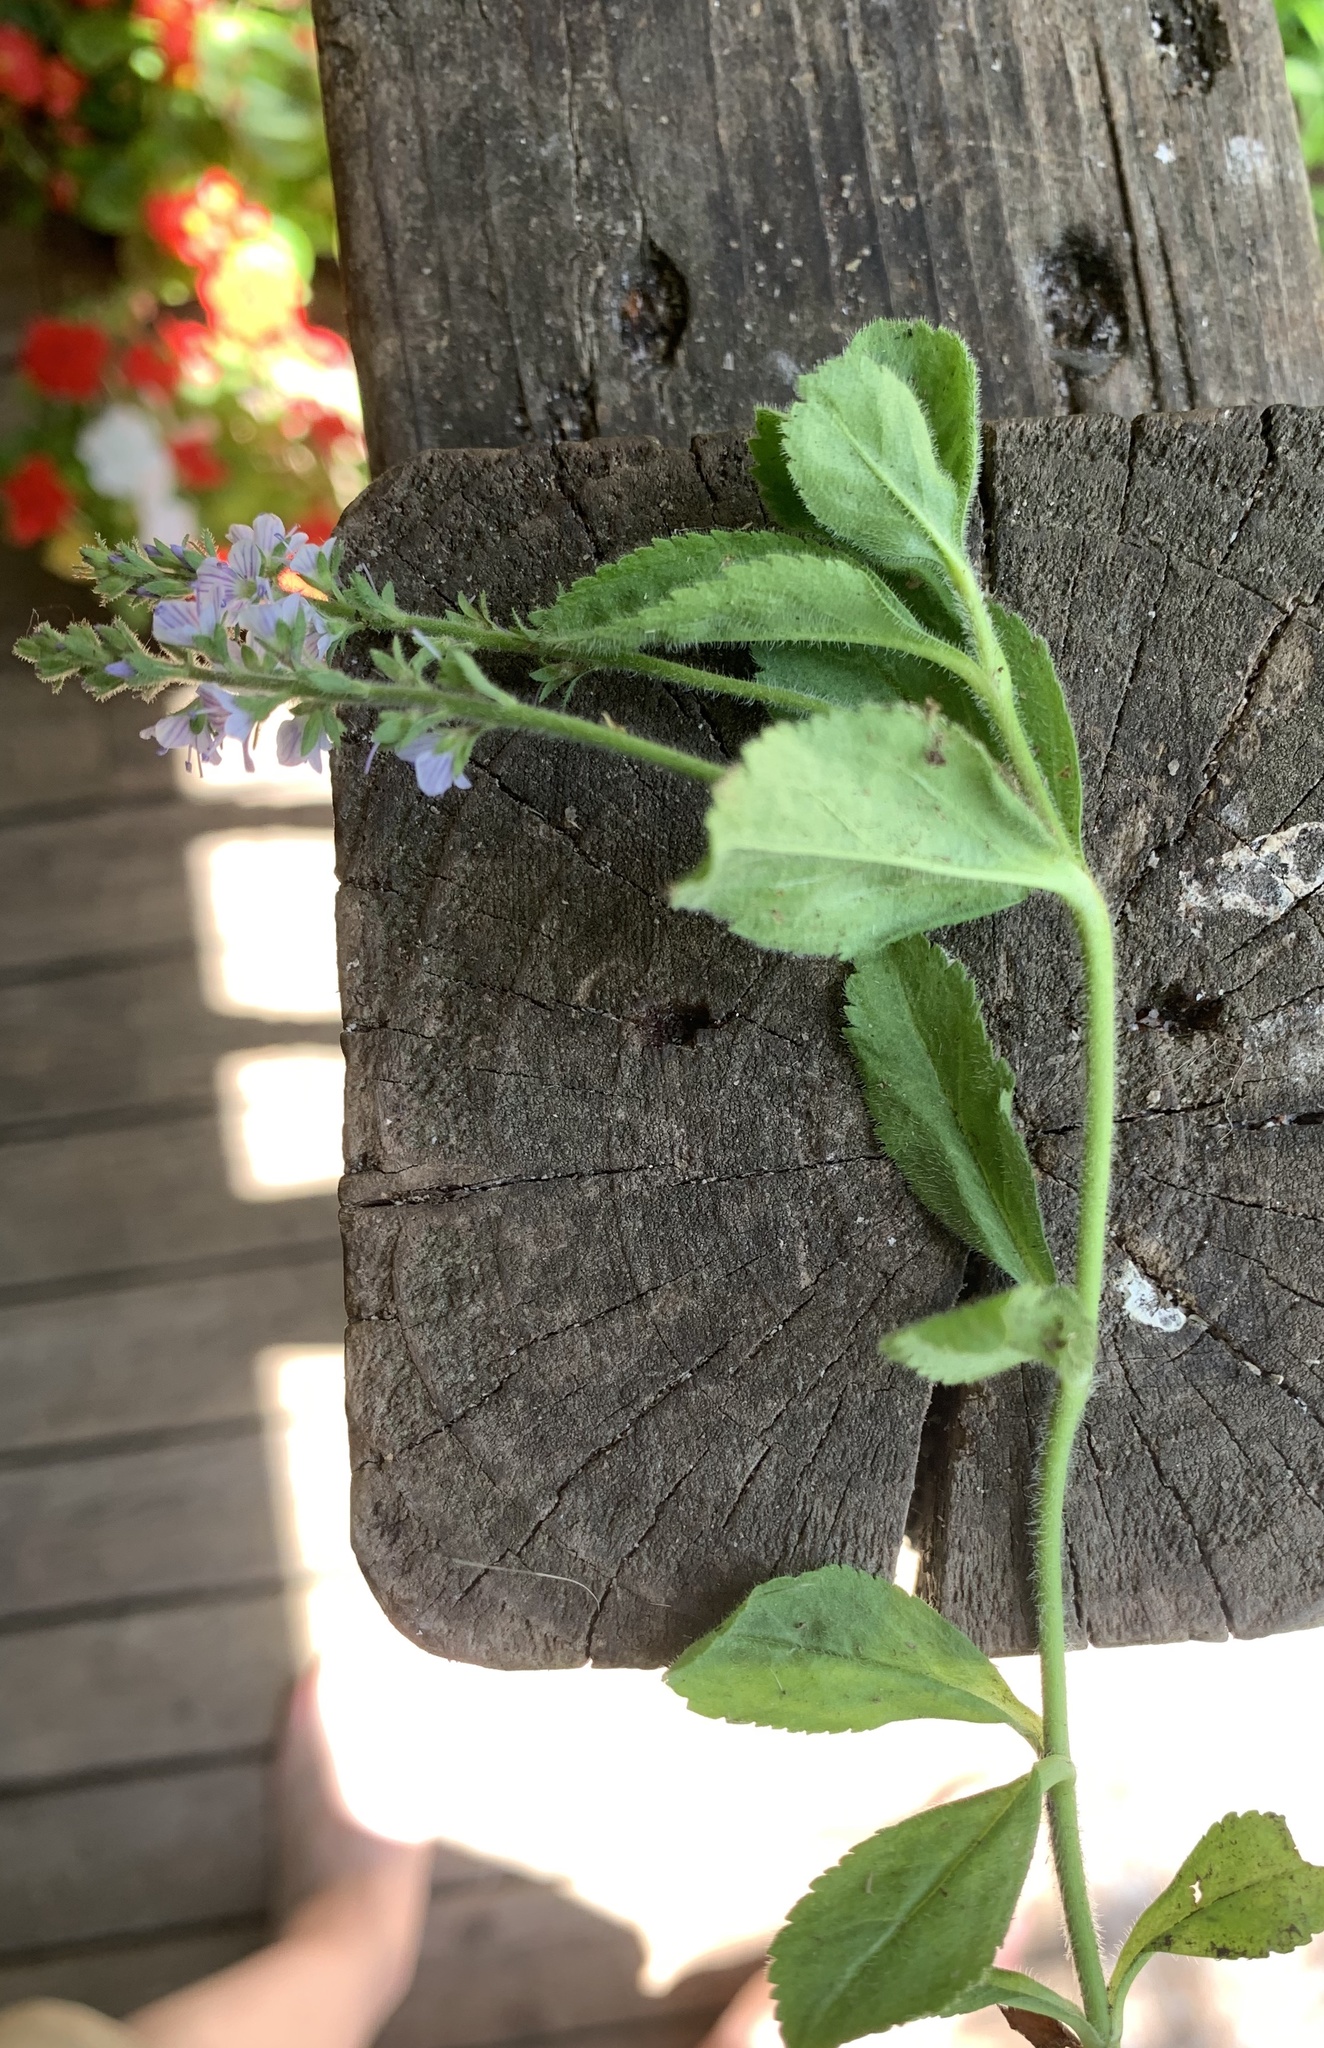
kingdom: Plantae
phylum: Tracheophyta
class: Magnoliopsida
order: Lamiales
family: Plantaginaceae
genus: Veronica
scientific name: Veronica officinalis
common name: Common speedwell
